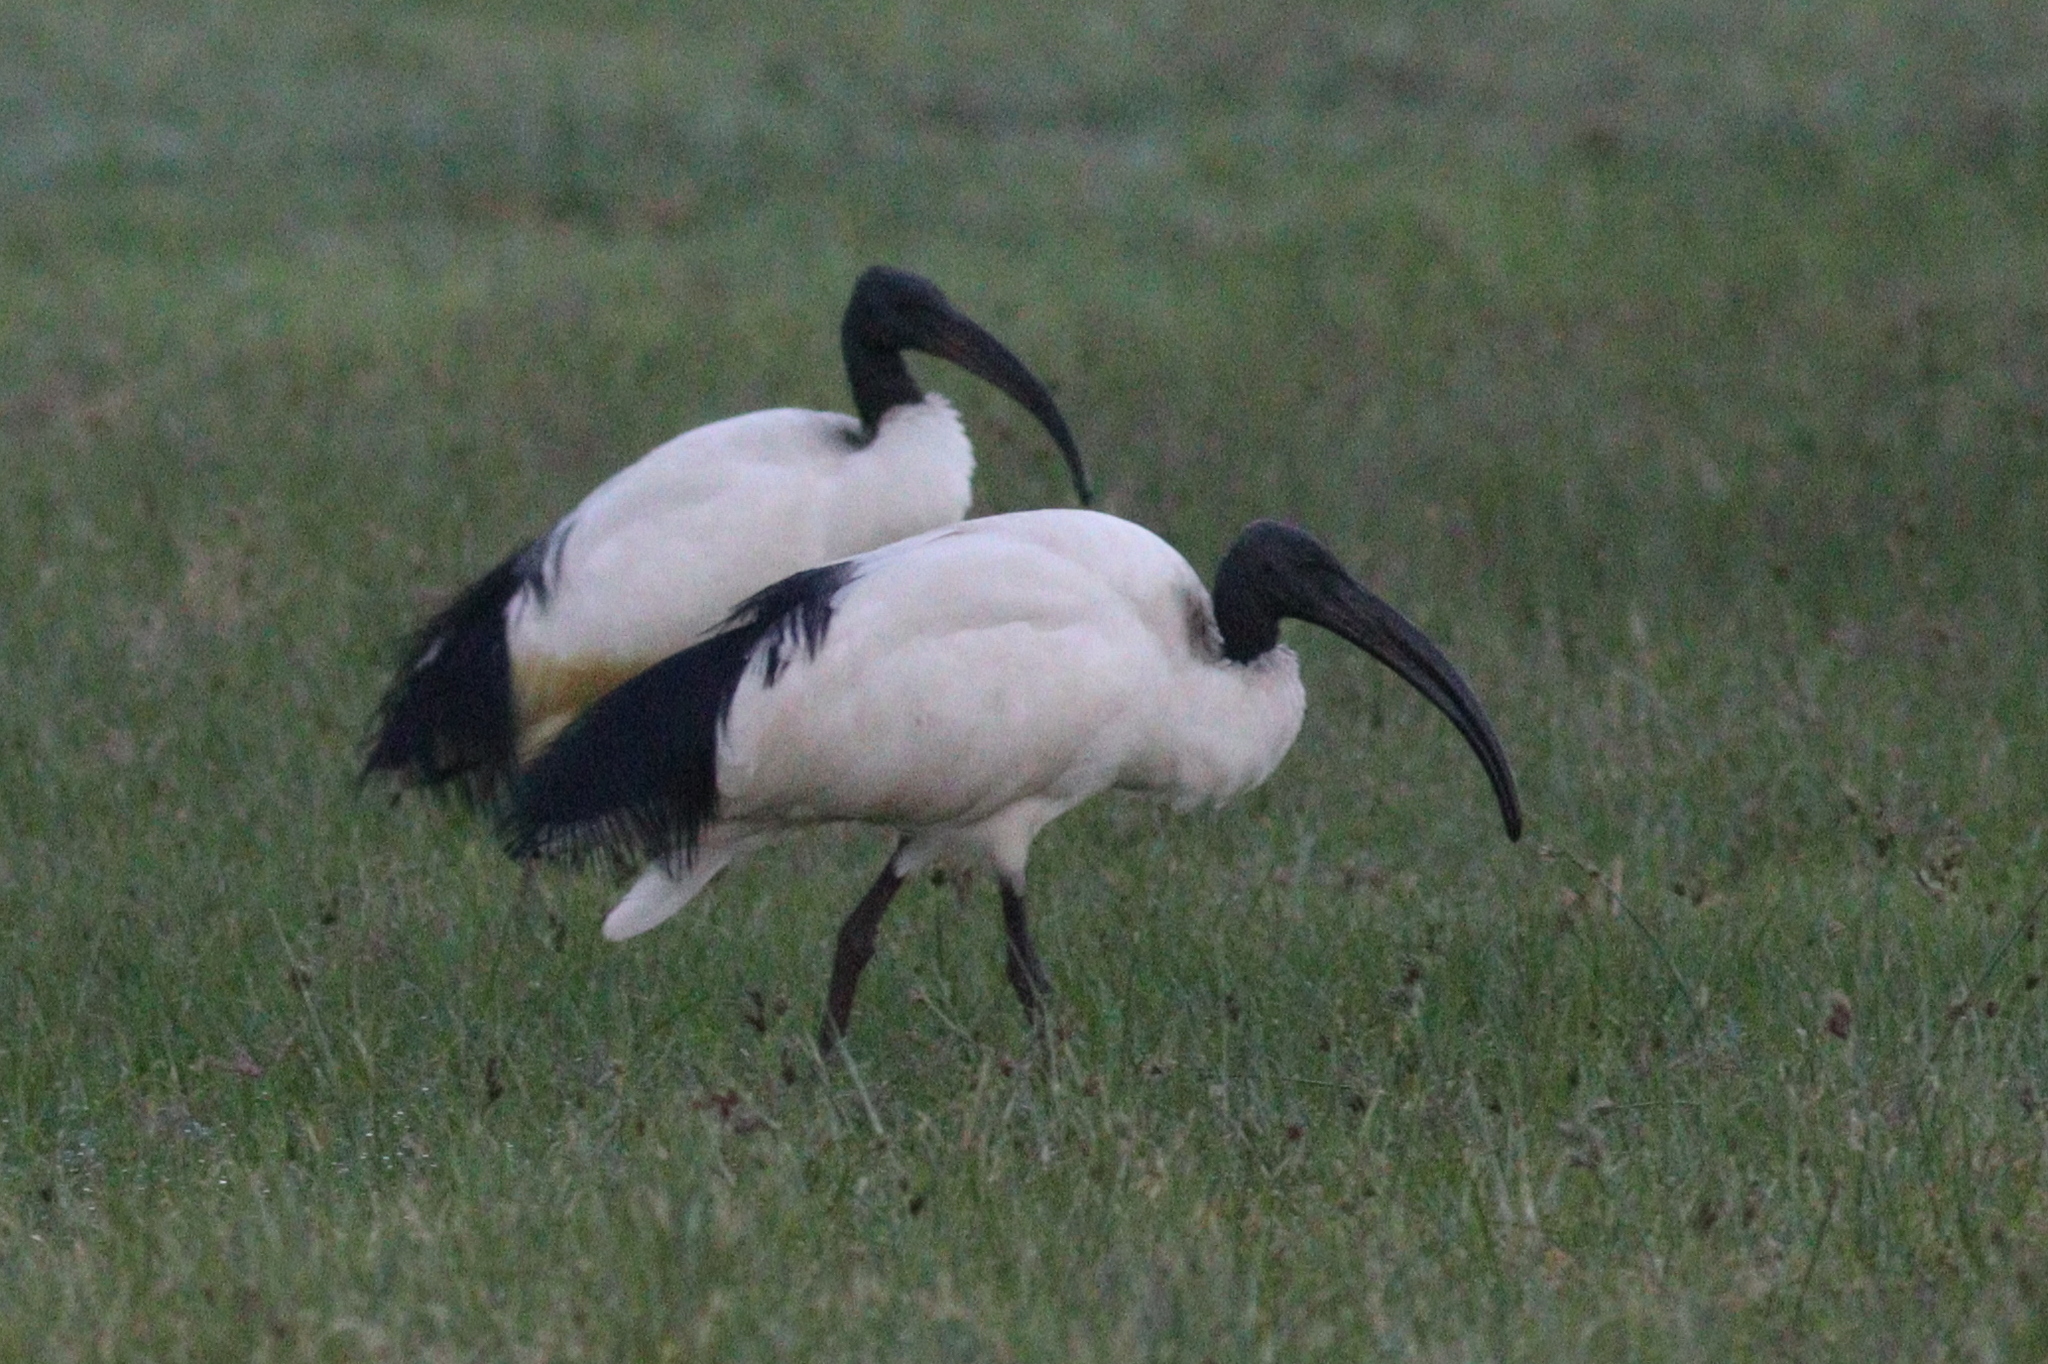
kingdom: Animalia
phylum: Chordata
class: Aves
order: Pelecaniformes
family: Threskiornithidae
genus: Threskiornis
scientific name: Threskiornis aethiopicus
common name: Sacred ibis
